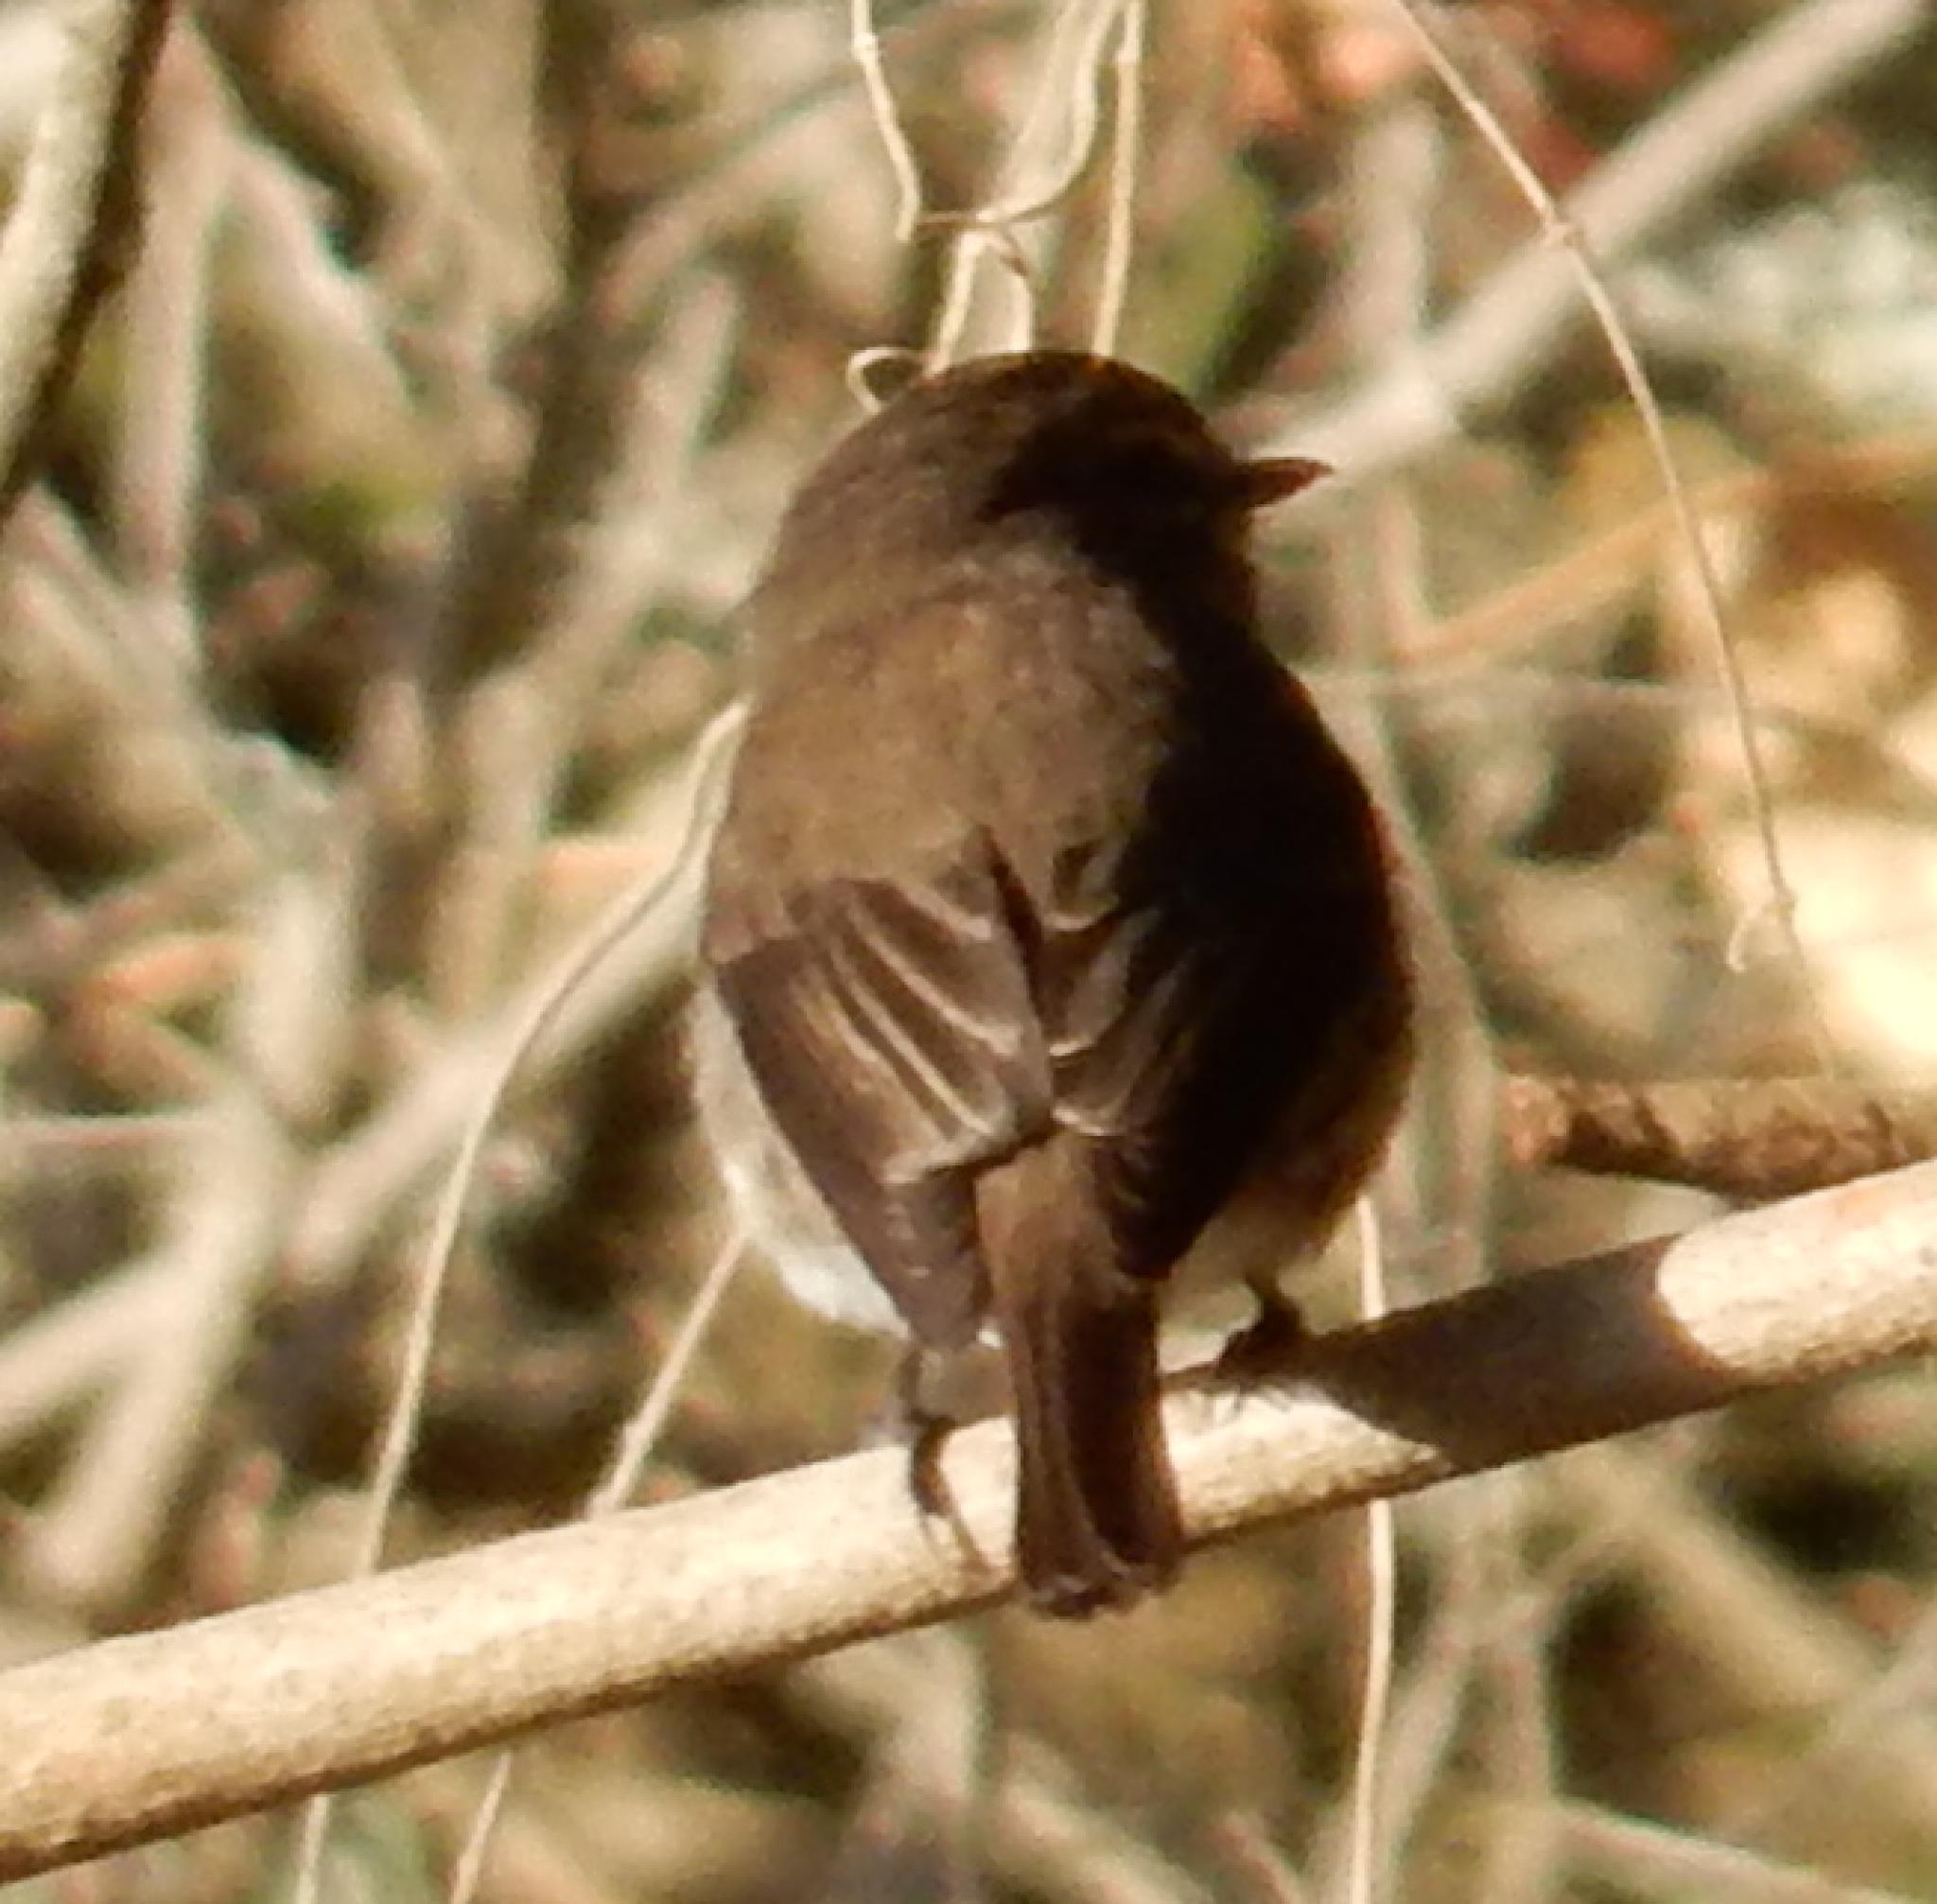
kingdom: Animalia
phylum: Chordata
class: Aves
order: Passeriformes
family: Muscicapidae
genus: Muscicapa
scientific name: Muscicapa adusta
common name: African dusky flycatcher
